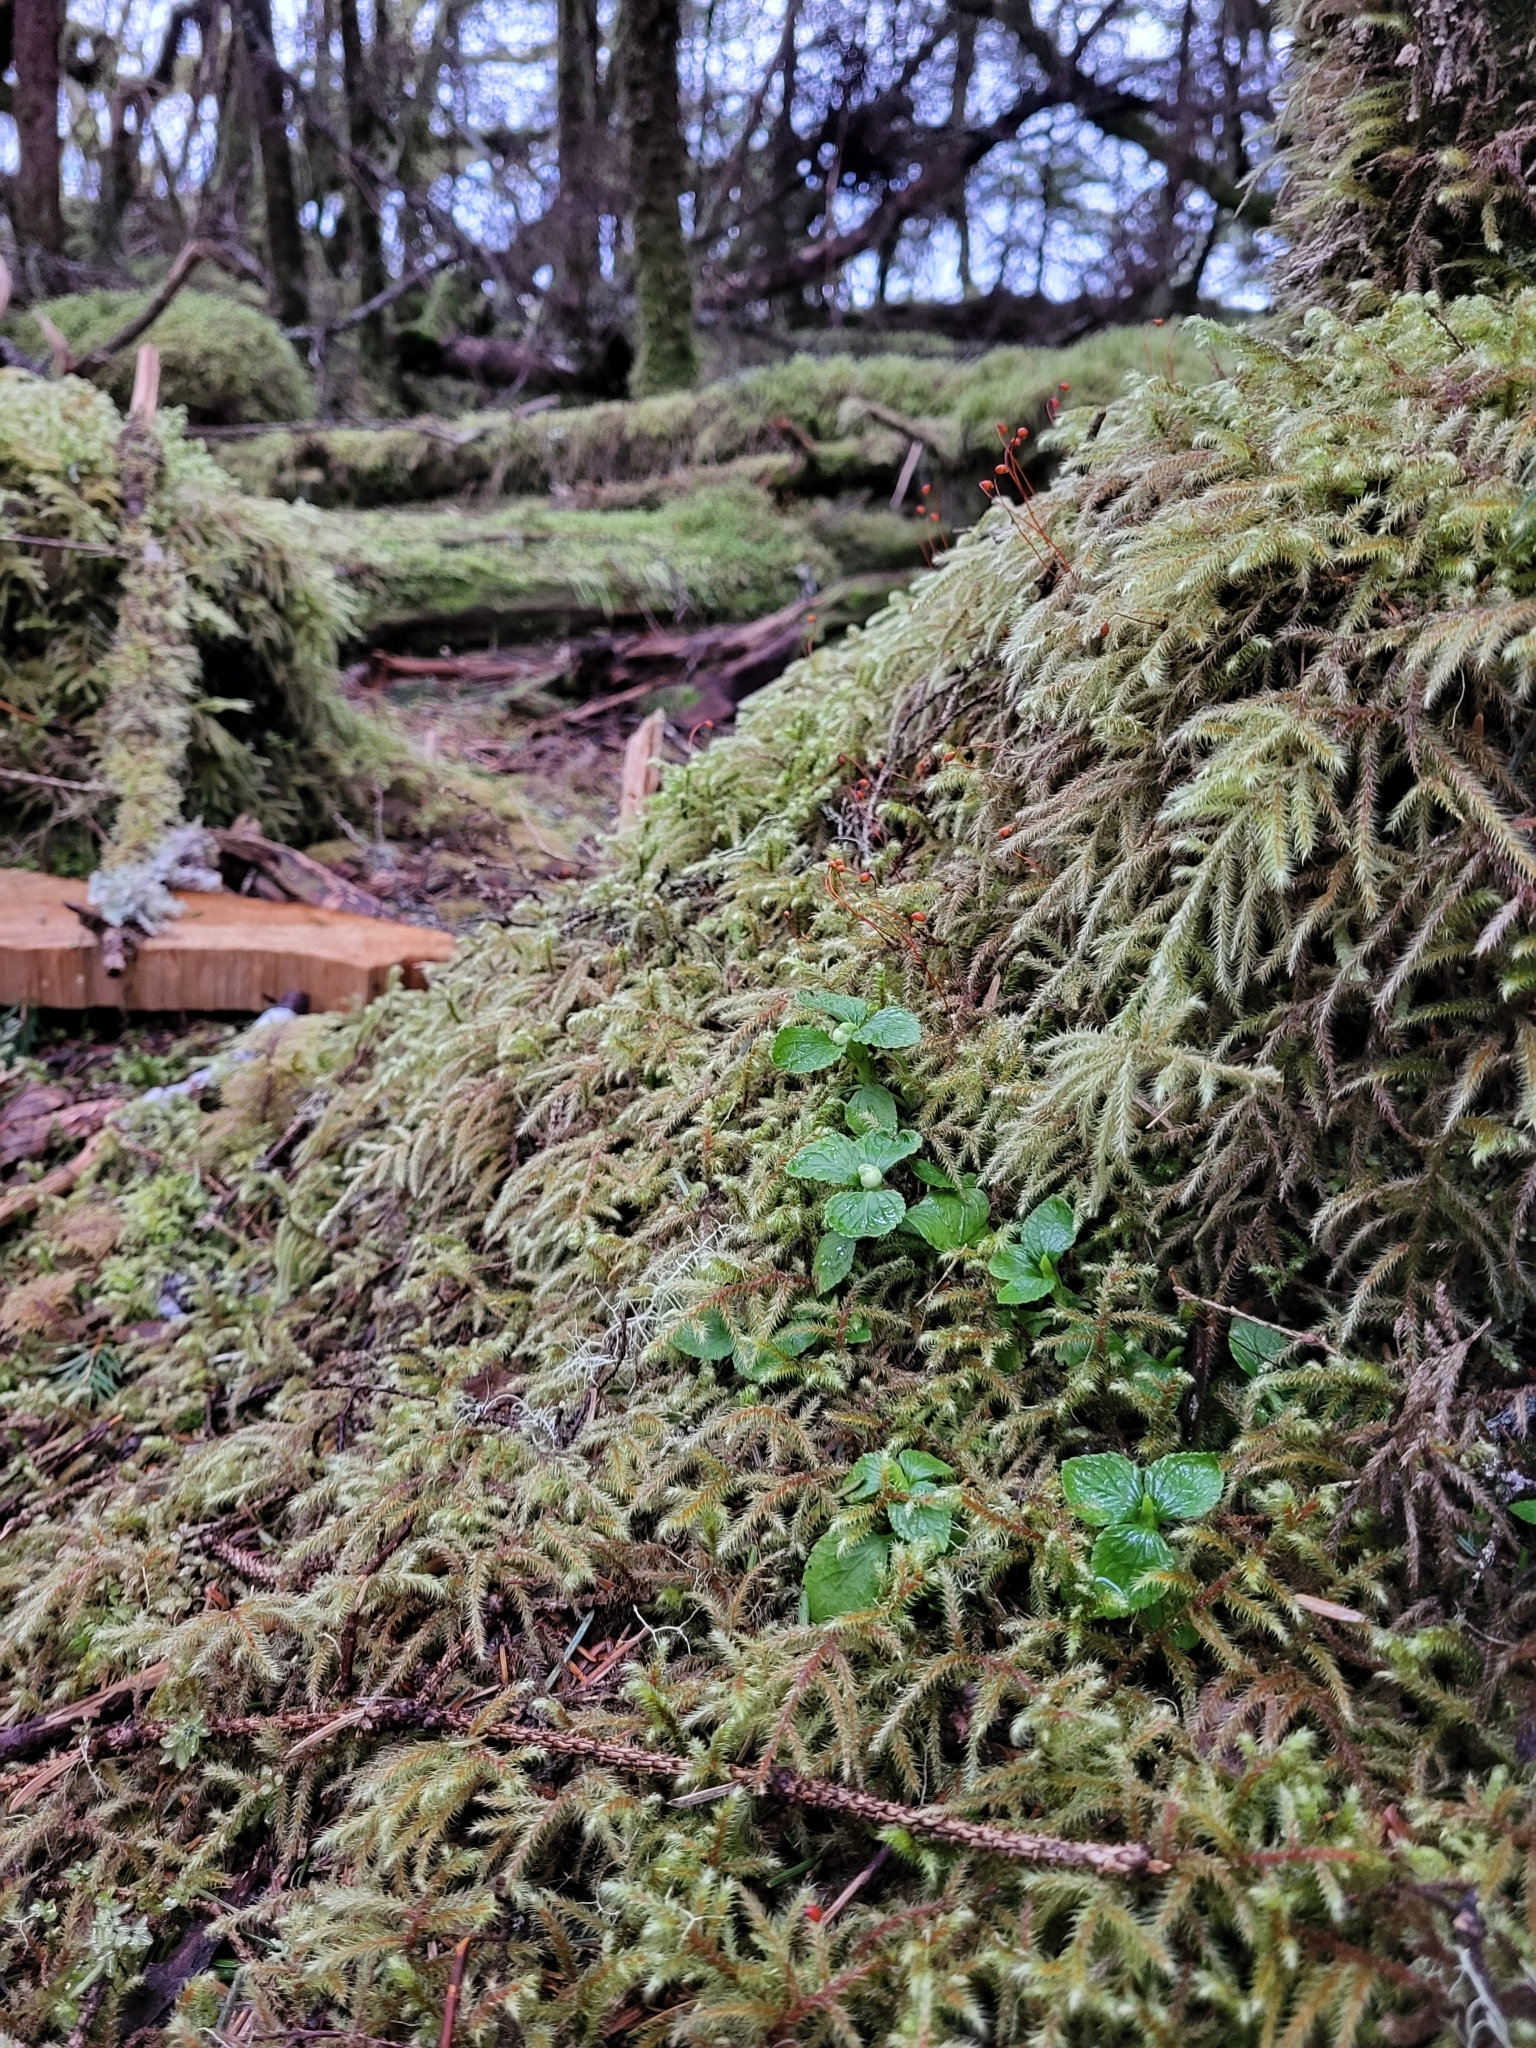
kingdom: Plantae
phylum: Tracheophyta
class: Magnoliopsida
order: Ericales
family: Ericaceae
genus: Moneses
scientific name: Moneses uniflora
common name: One-flowered wintergreen
